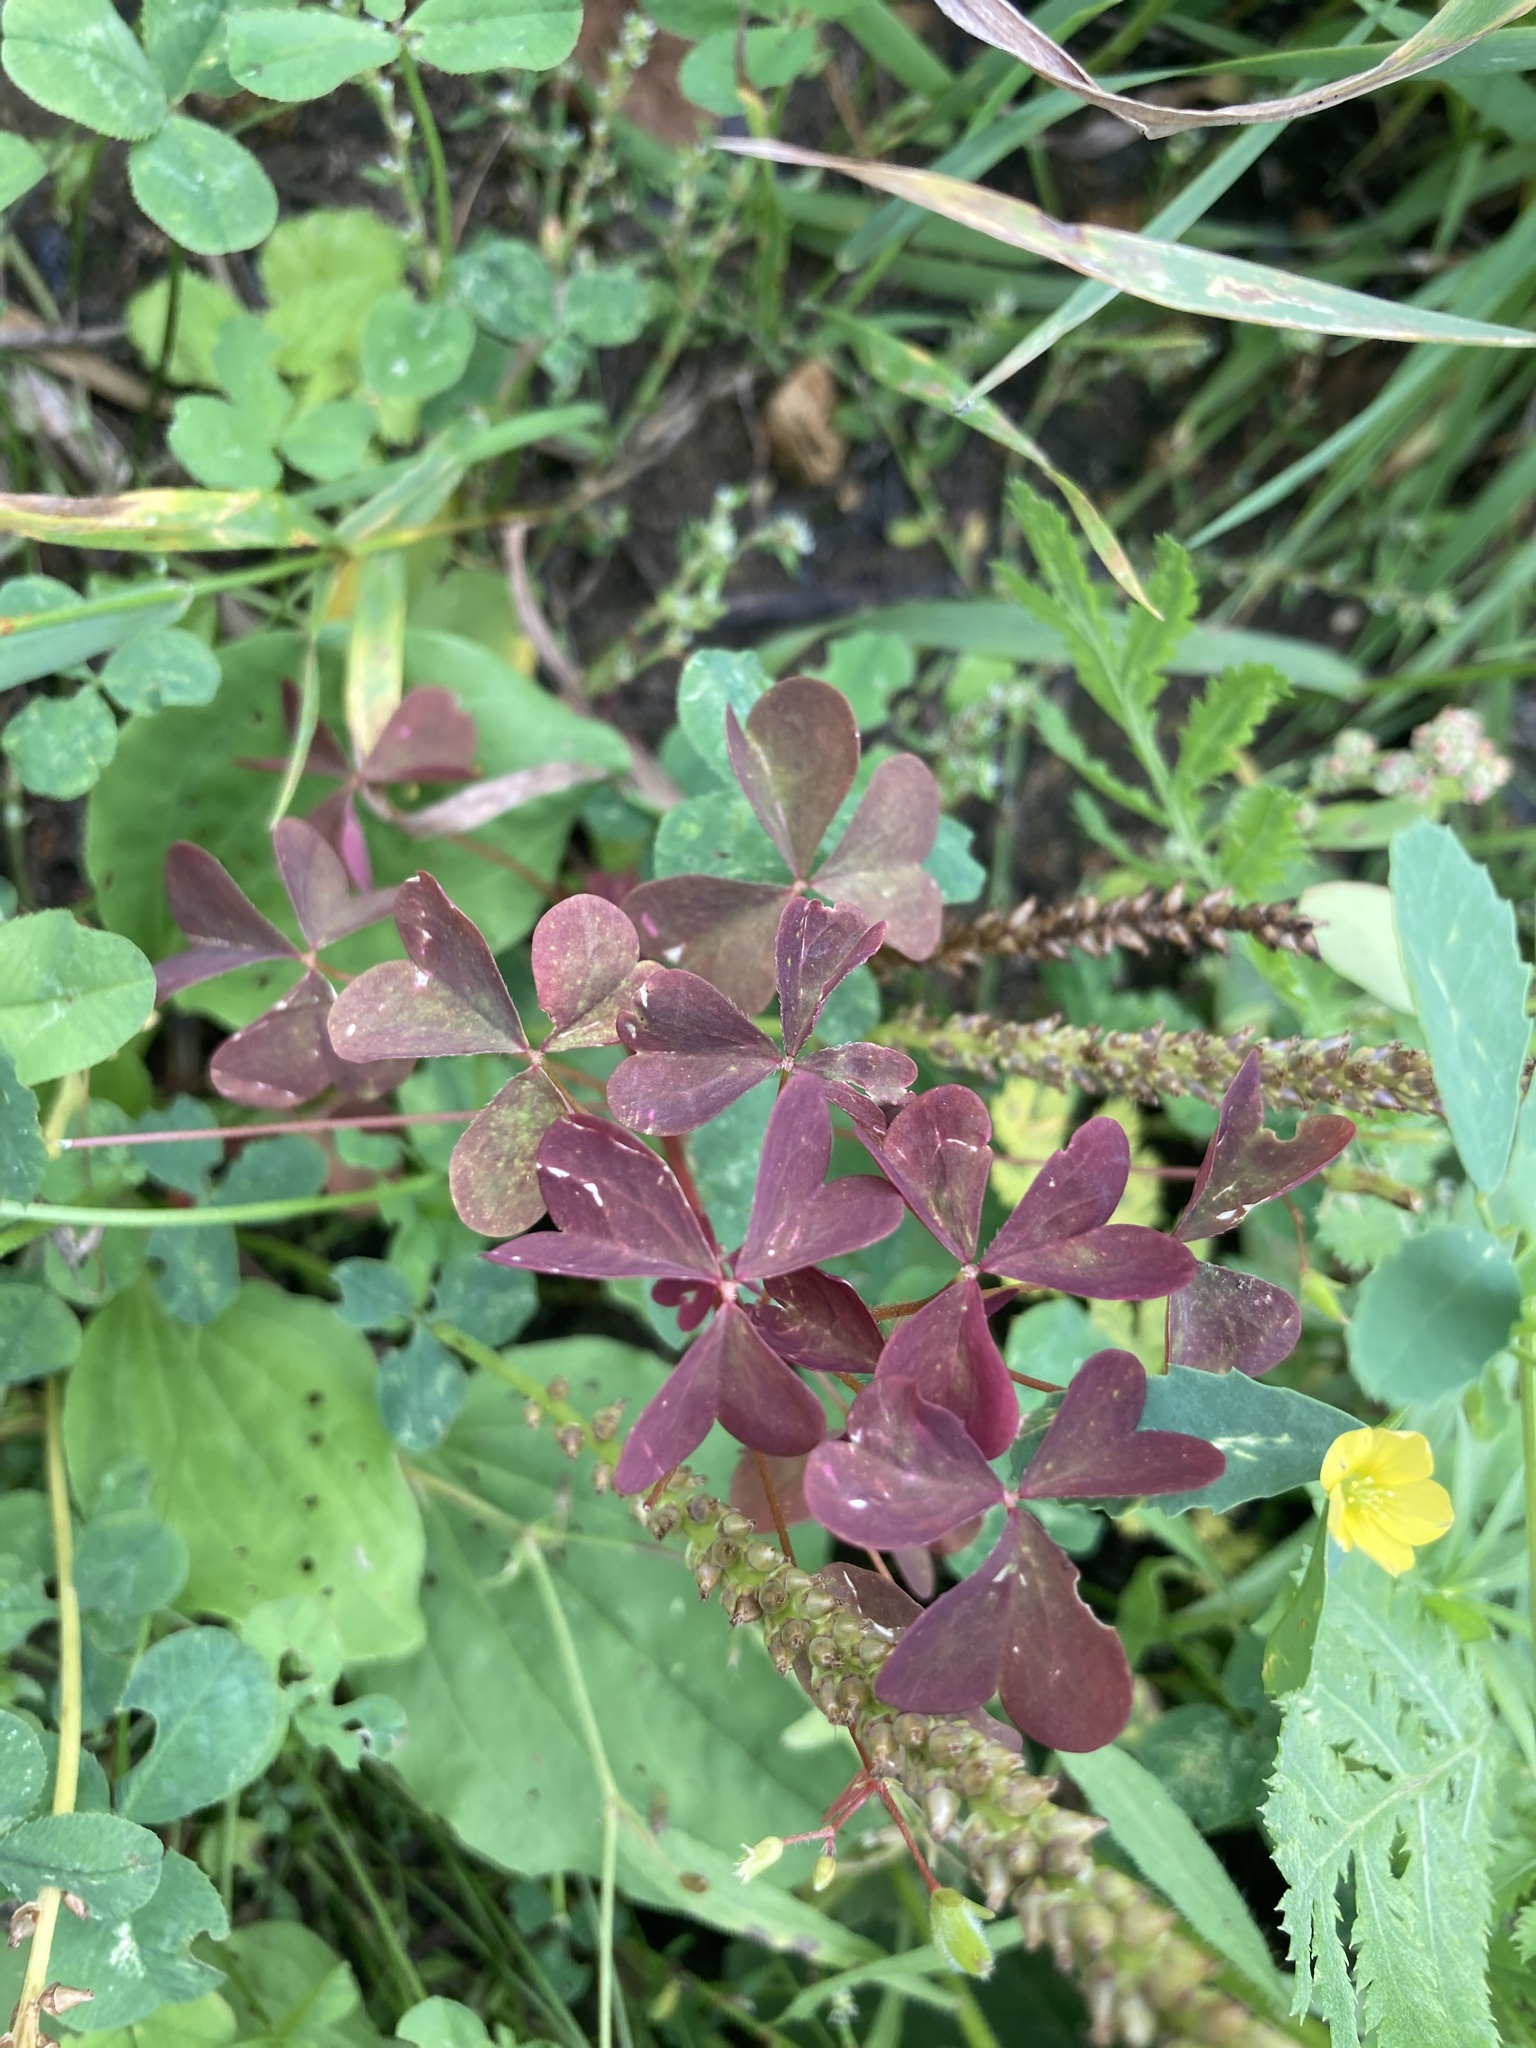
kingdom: Plantae
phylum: Tracheophyta
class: Magnoliopsida
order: Oxalidales
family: Oxalidaceae
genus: Oxalis
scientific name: Oxalis stricta
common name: Upright yellow-sorrel
